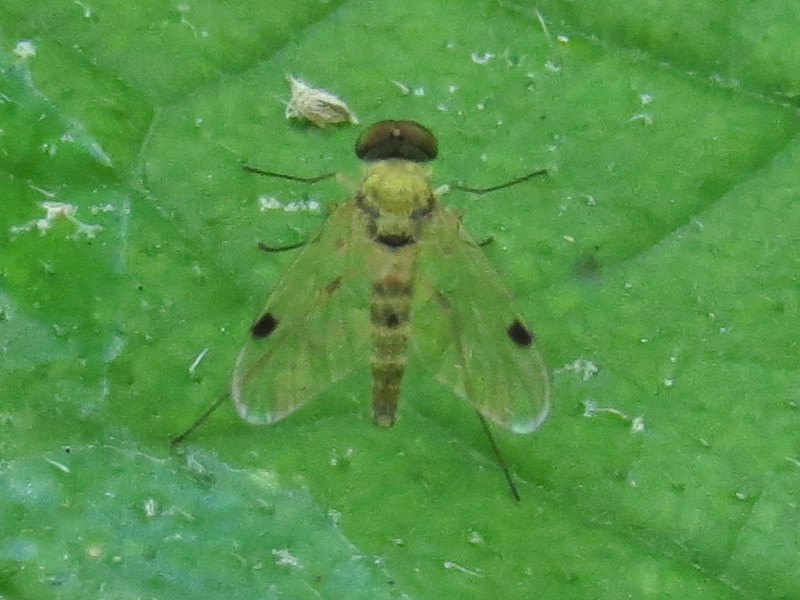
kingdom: Animalia
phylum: Arthropoda
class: Insecta
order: Diptera
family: Rhagionidae
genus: Chrysopilus
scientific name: Chrysopilus modestus
